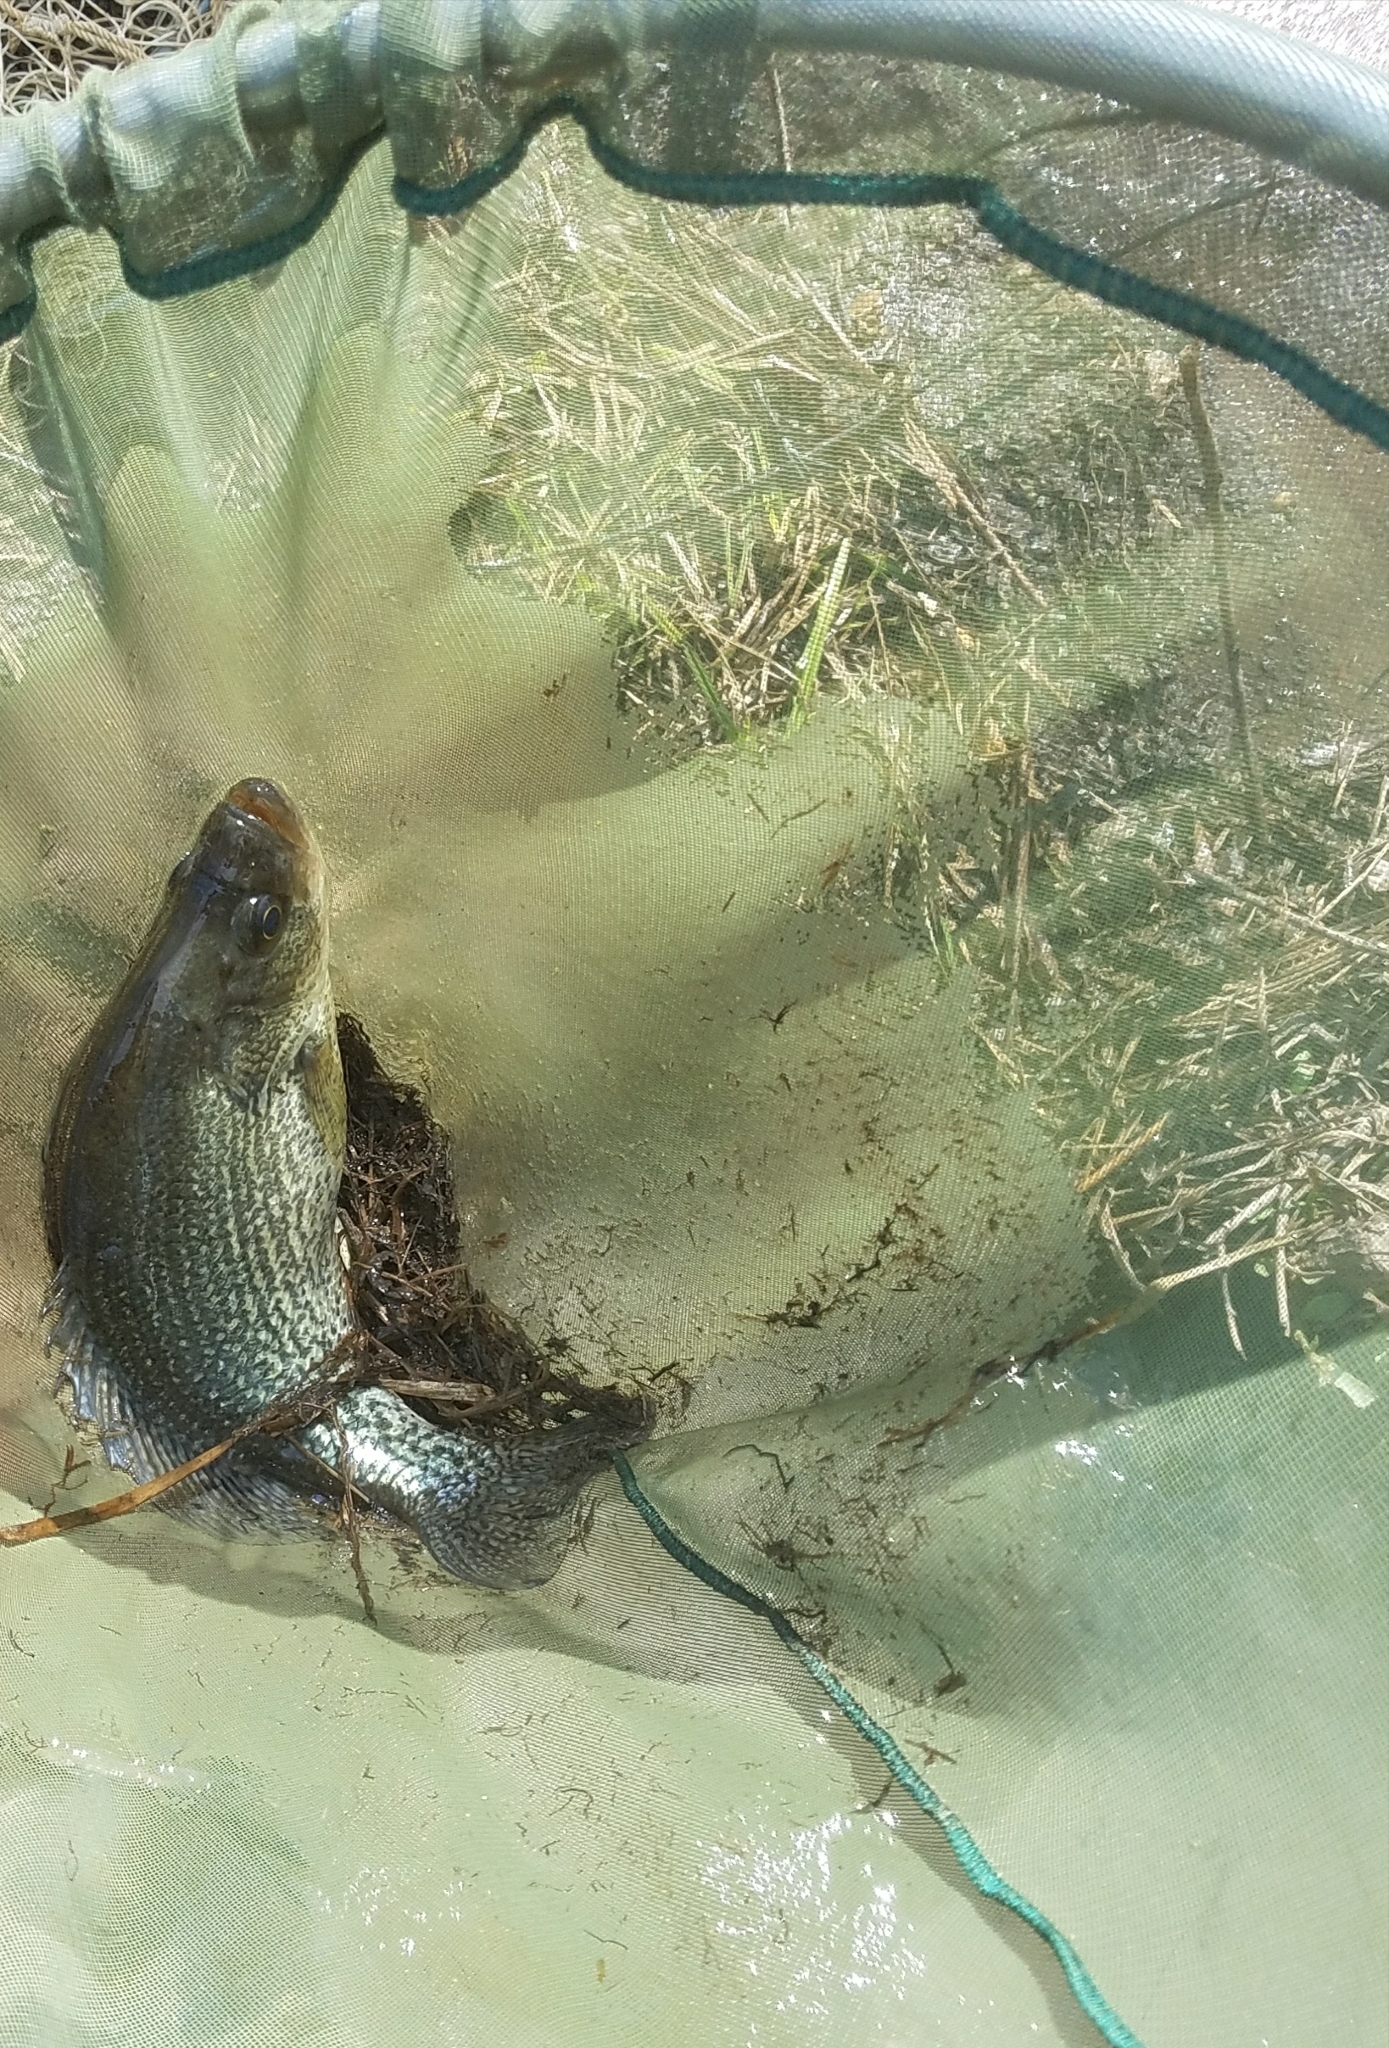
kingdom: Animalia
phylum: Chordata
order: Perciformes
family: Centrarchidae
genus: Pomoxis
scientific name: Pomoxis nigromaculatus
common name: Black crappie
